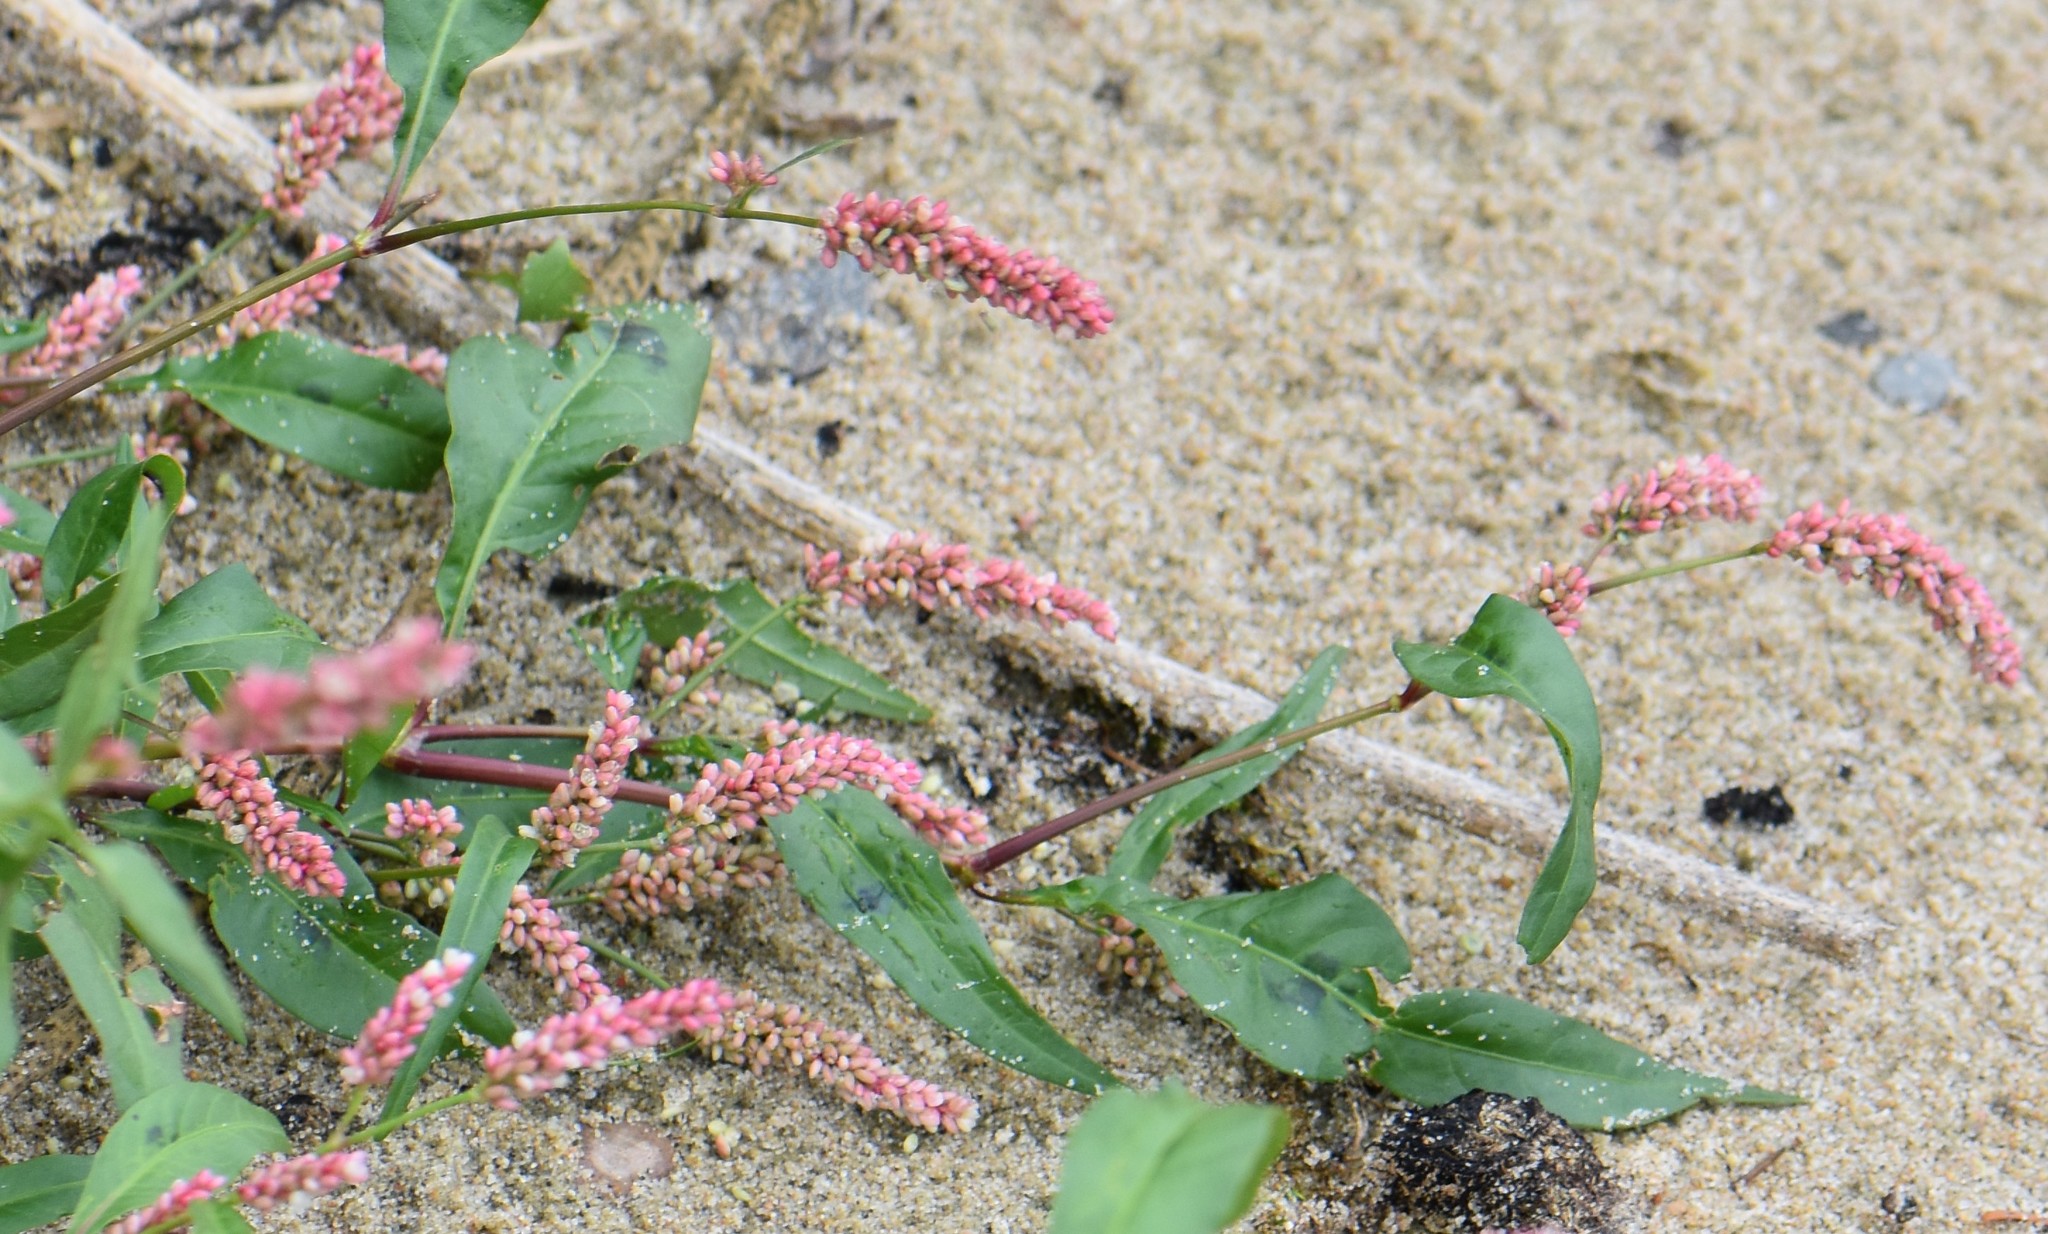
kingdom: Plantae
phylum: Tracheophyta
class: Magnoliopsida
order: Caryophyllales
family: Polygonaceae
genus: Persicaria
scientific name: Persicaria lapathifolia
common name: Curlytop knotweed
